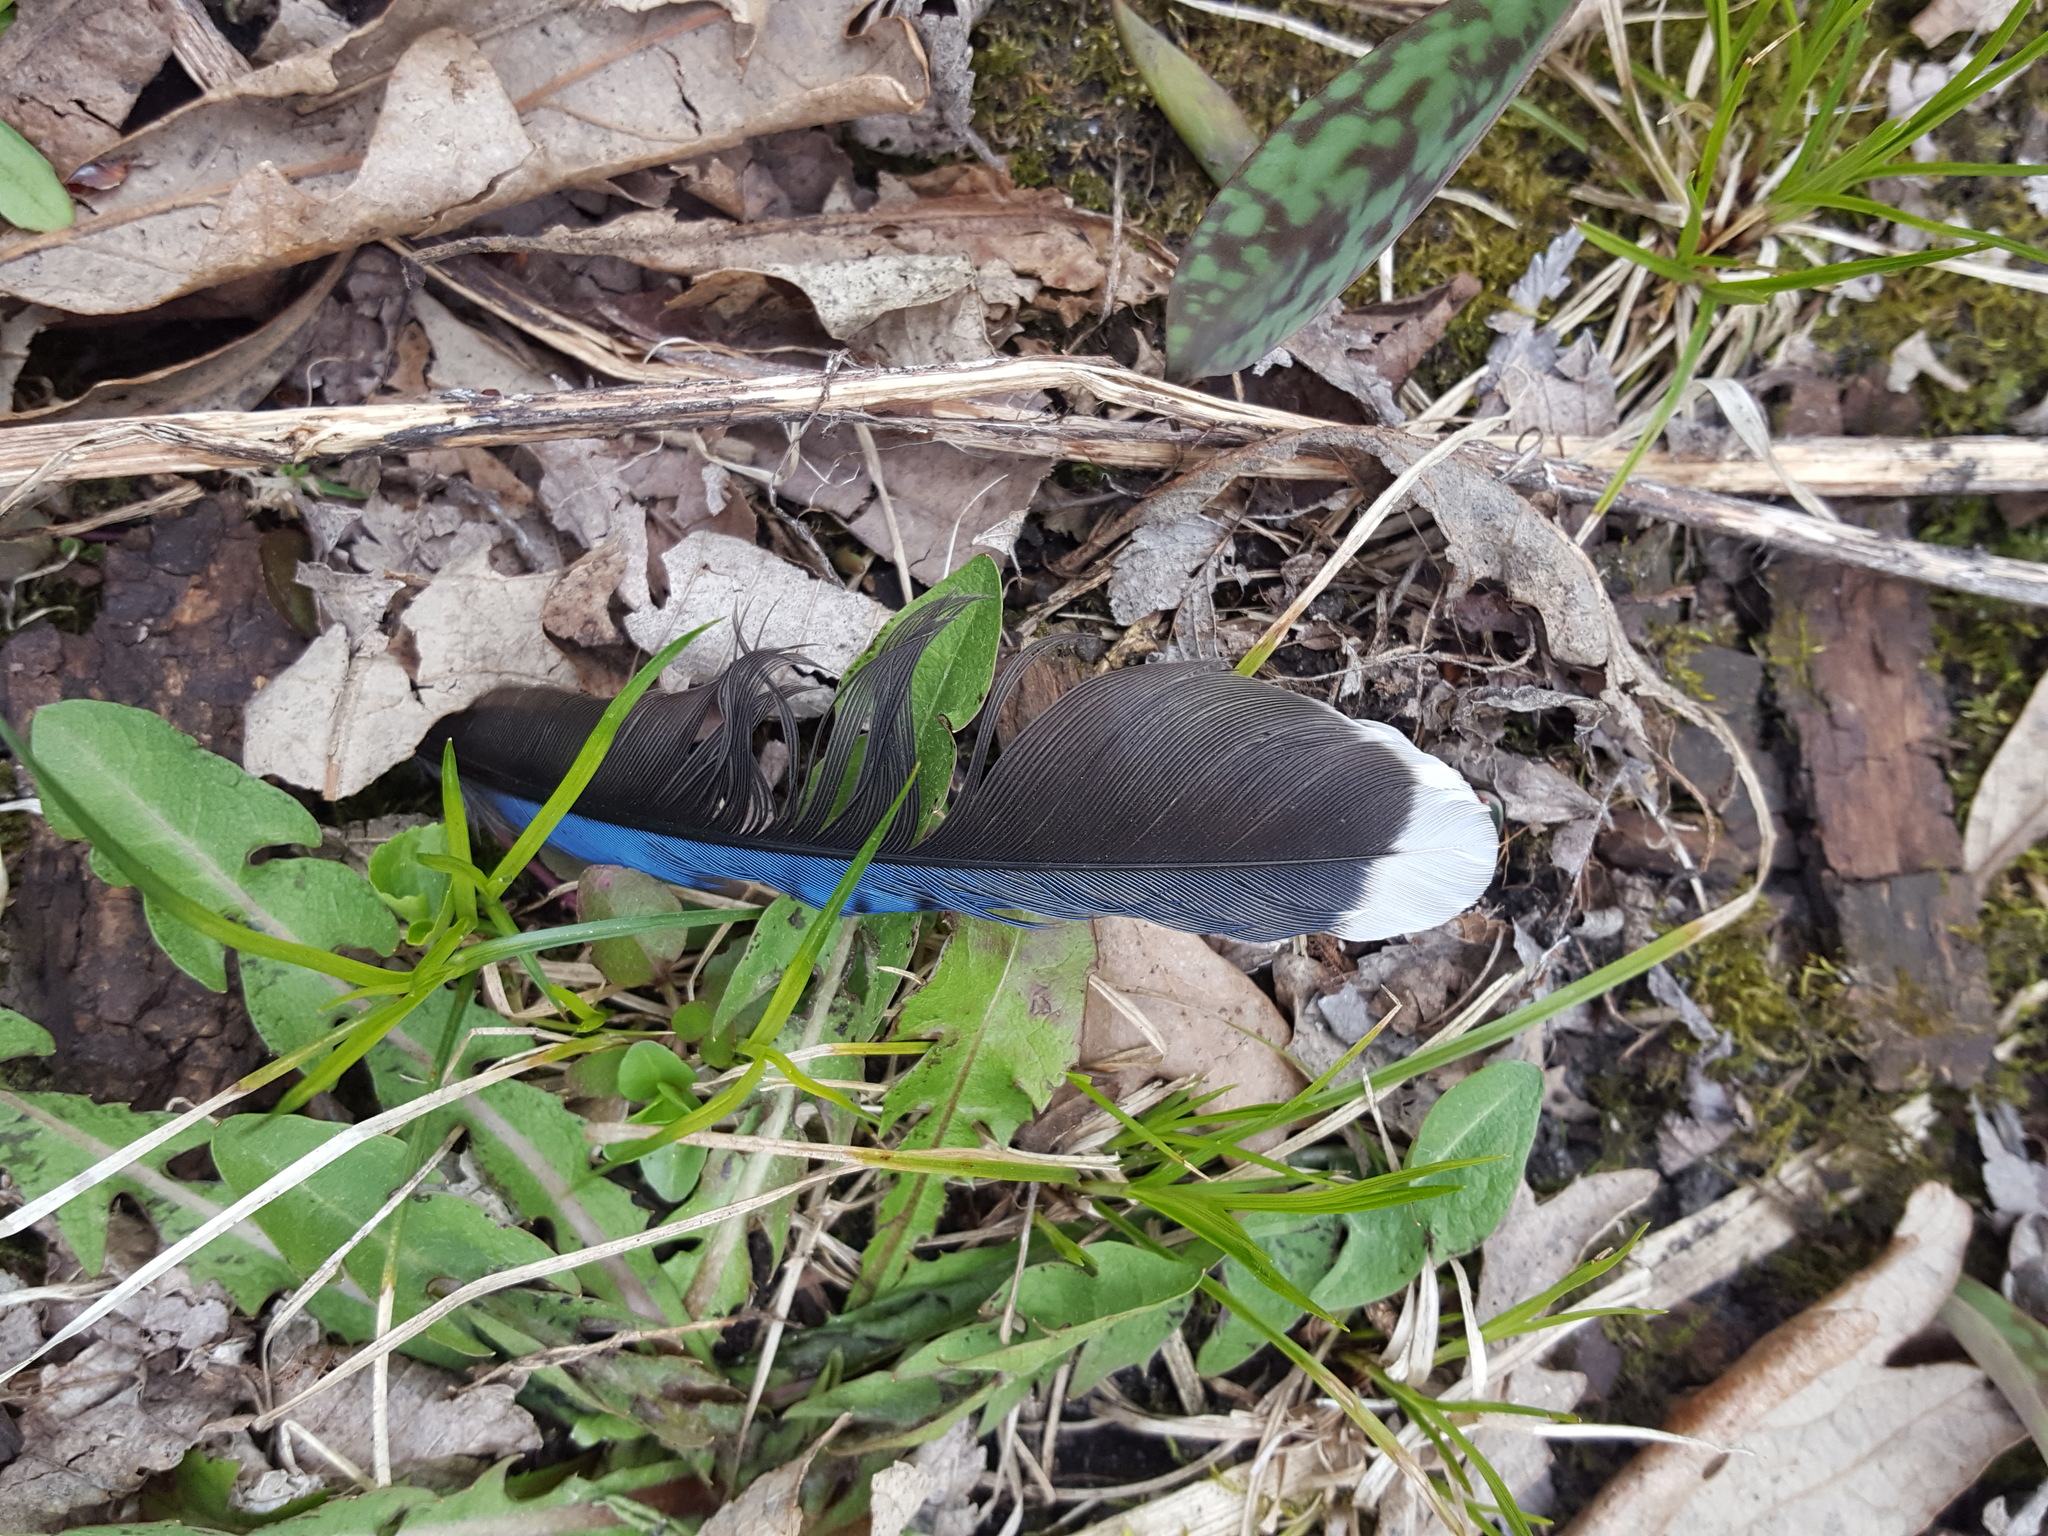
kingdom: Animalia
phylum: Chordata
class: Aves
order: Passeriformes
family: Corvidae
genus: Cyanocitta
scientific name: Cyanocitta cristata
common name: Blue jay
